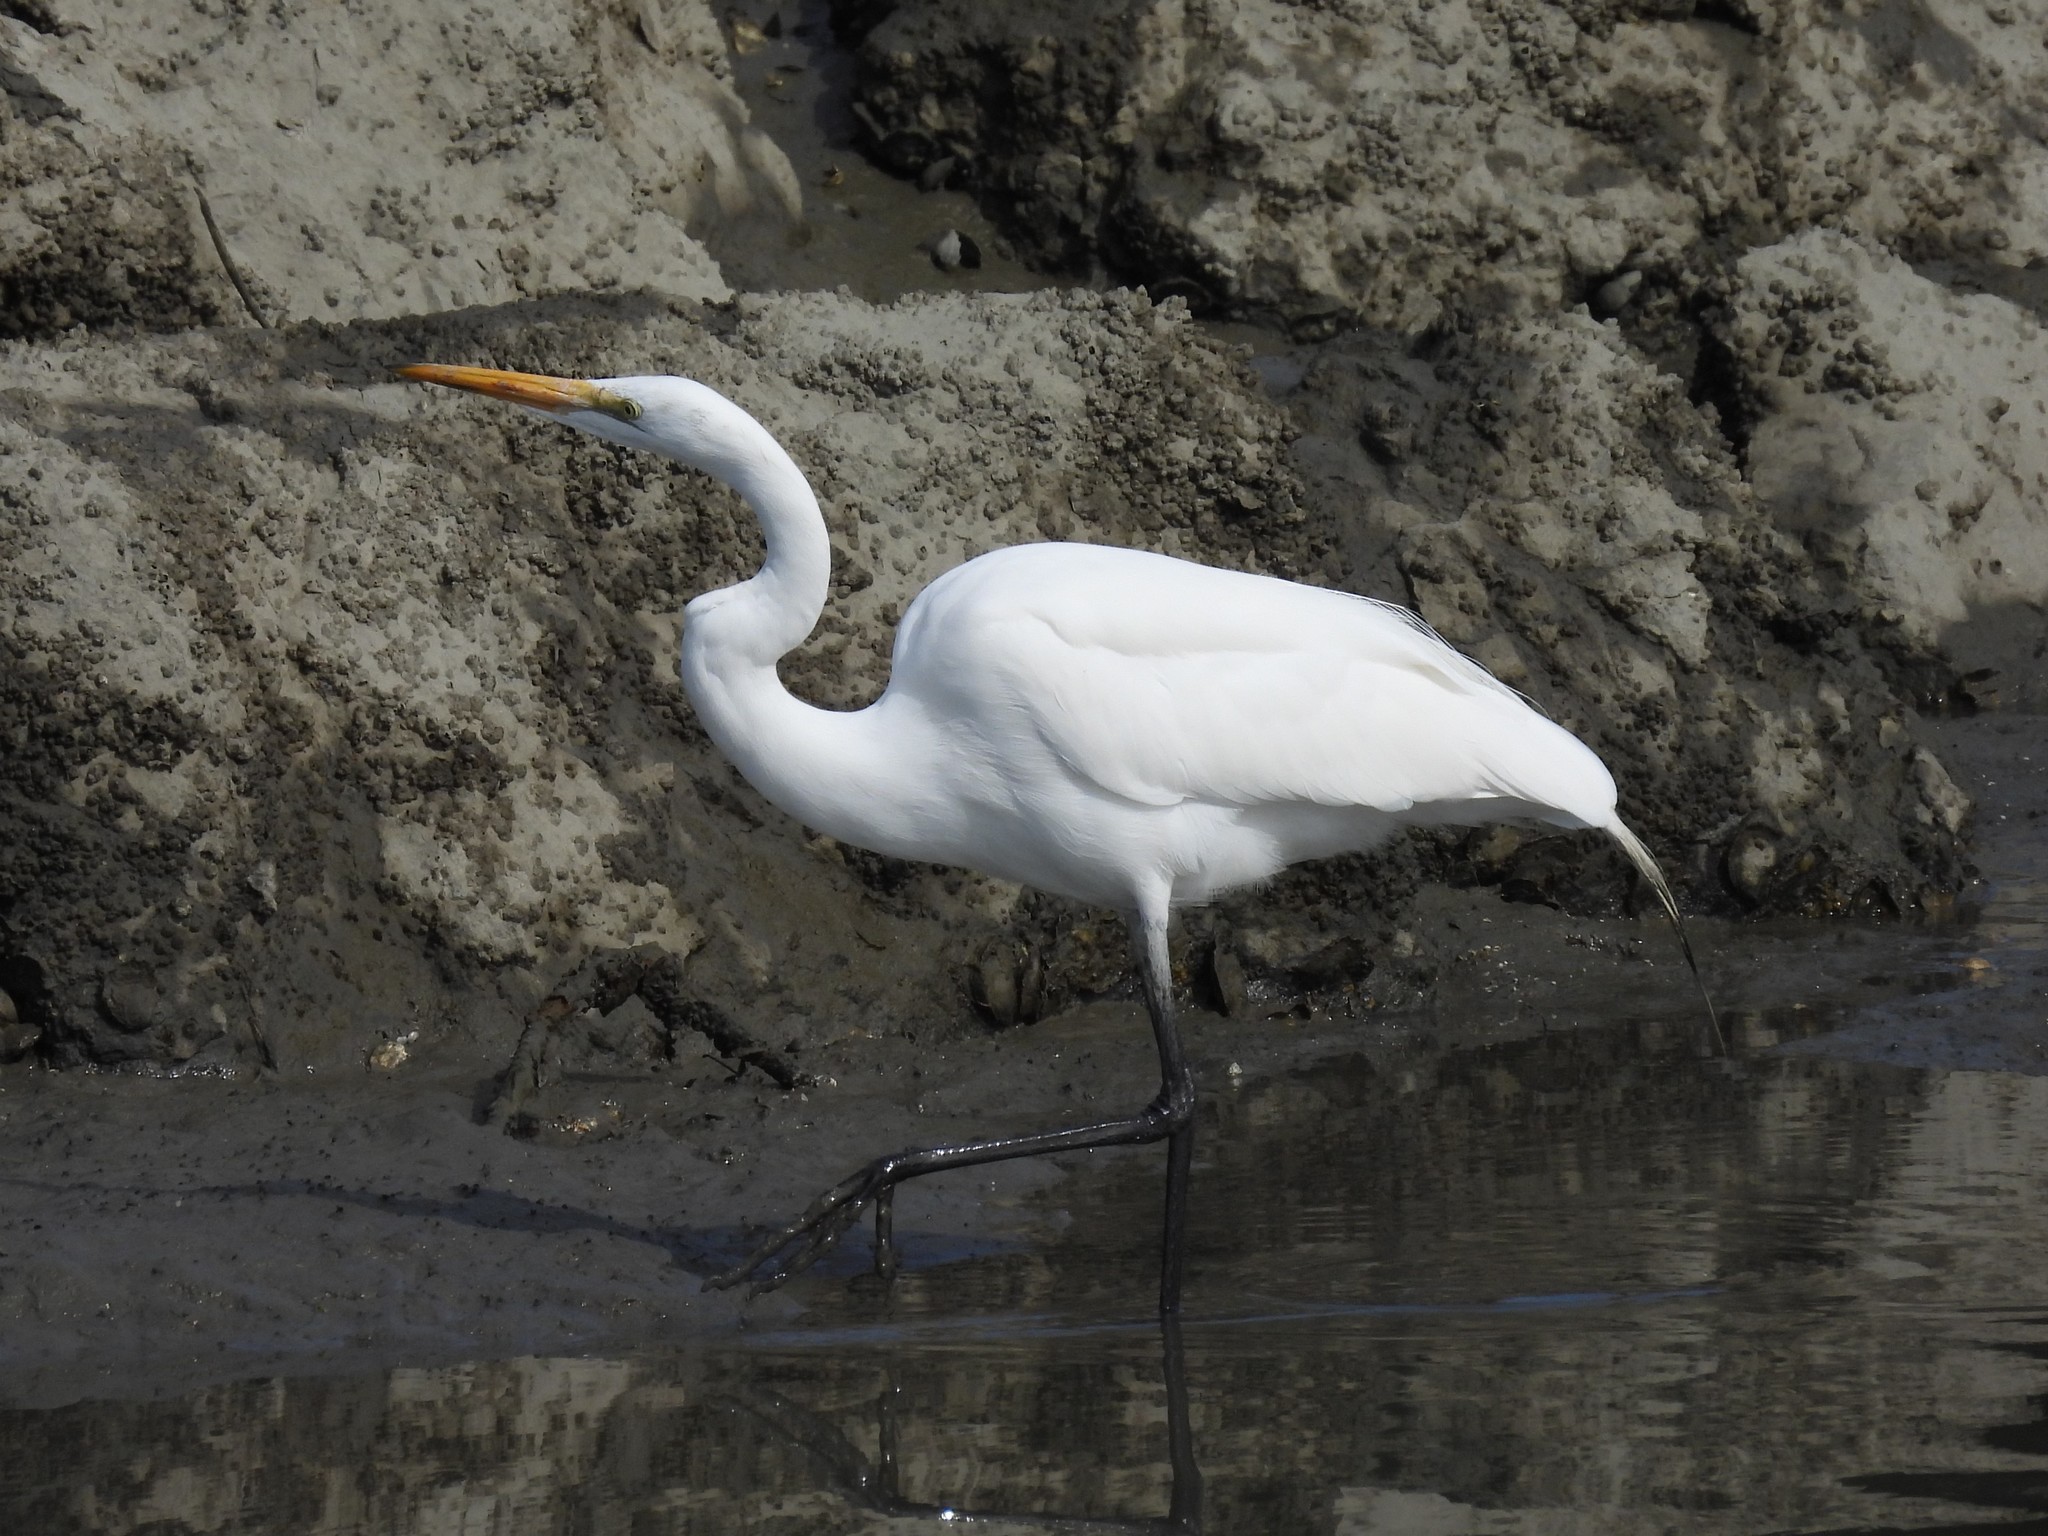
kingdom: Animalia
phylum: Chordata
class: Aves
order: Pelecaniformes
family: Ardeidae
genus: Ardea
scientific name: Ardea alba
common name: Great egret
